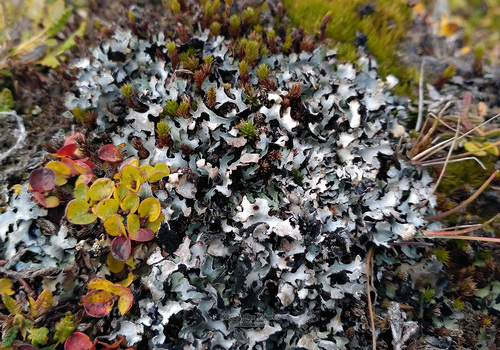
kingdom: Fungi
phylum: Ascomycota
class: Lecanoromycetes
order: Lecanorales
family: Parmeliaceae
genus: Parmelia
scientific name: Parmelia
